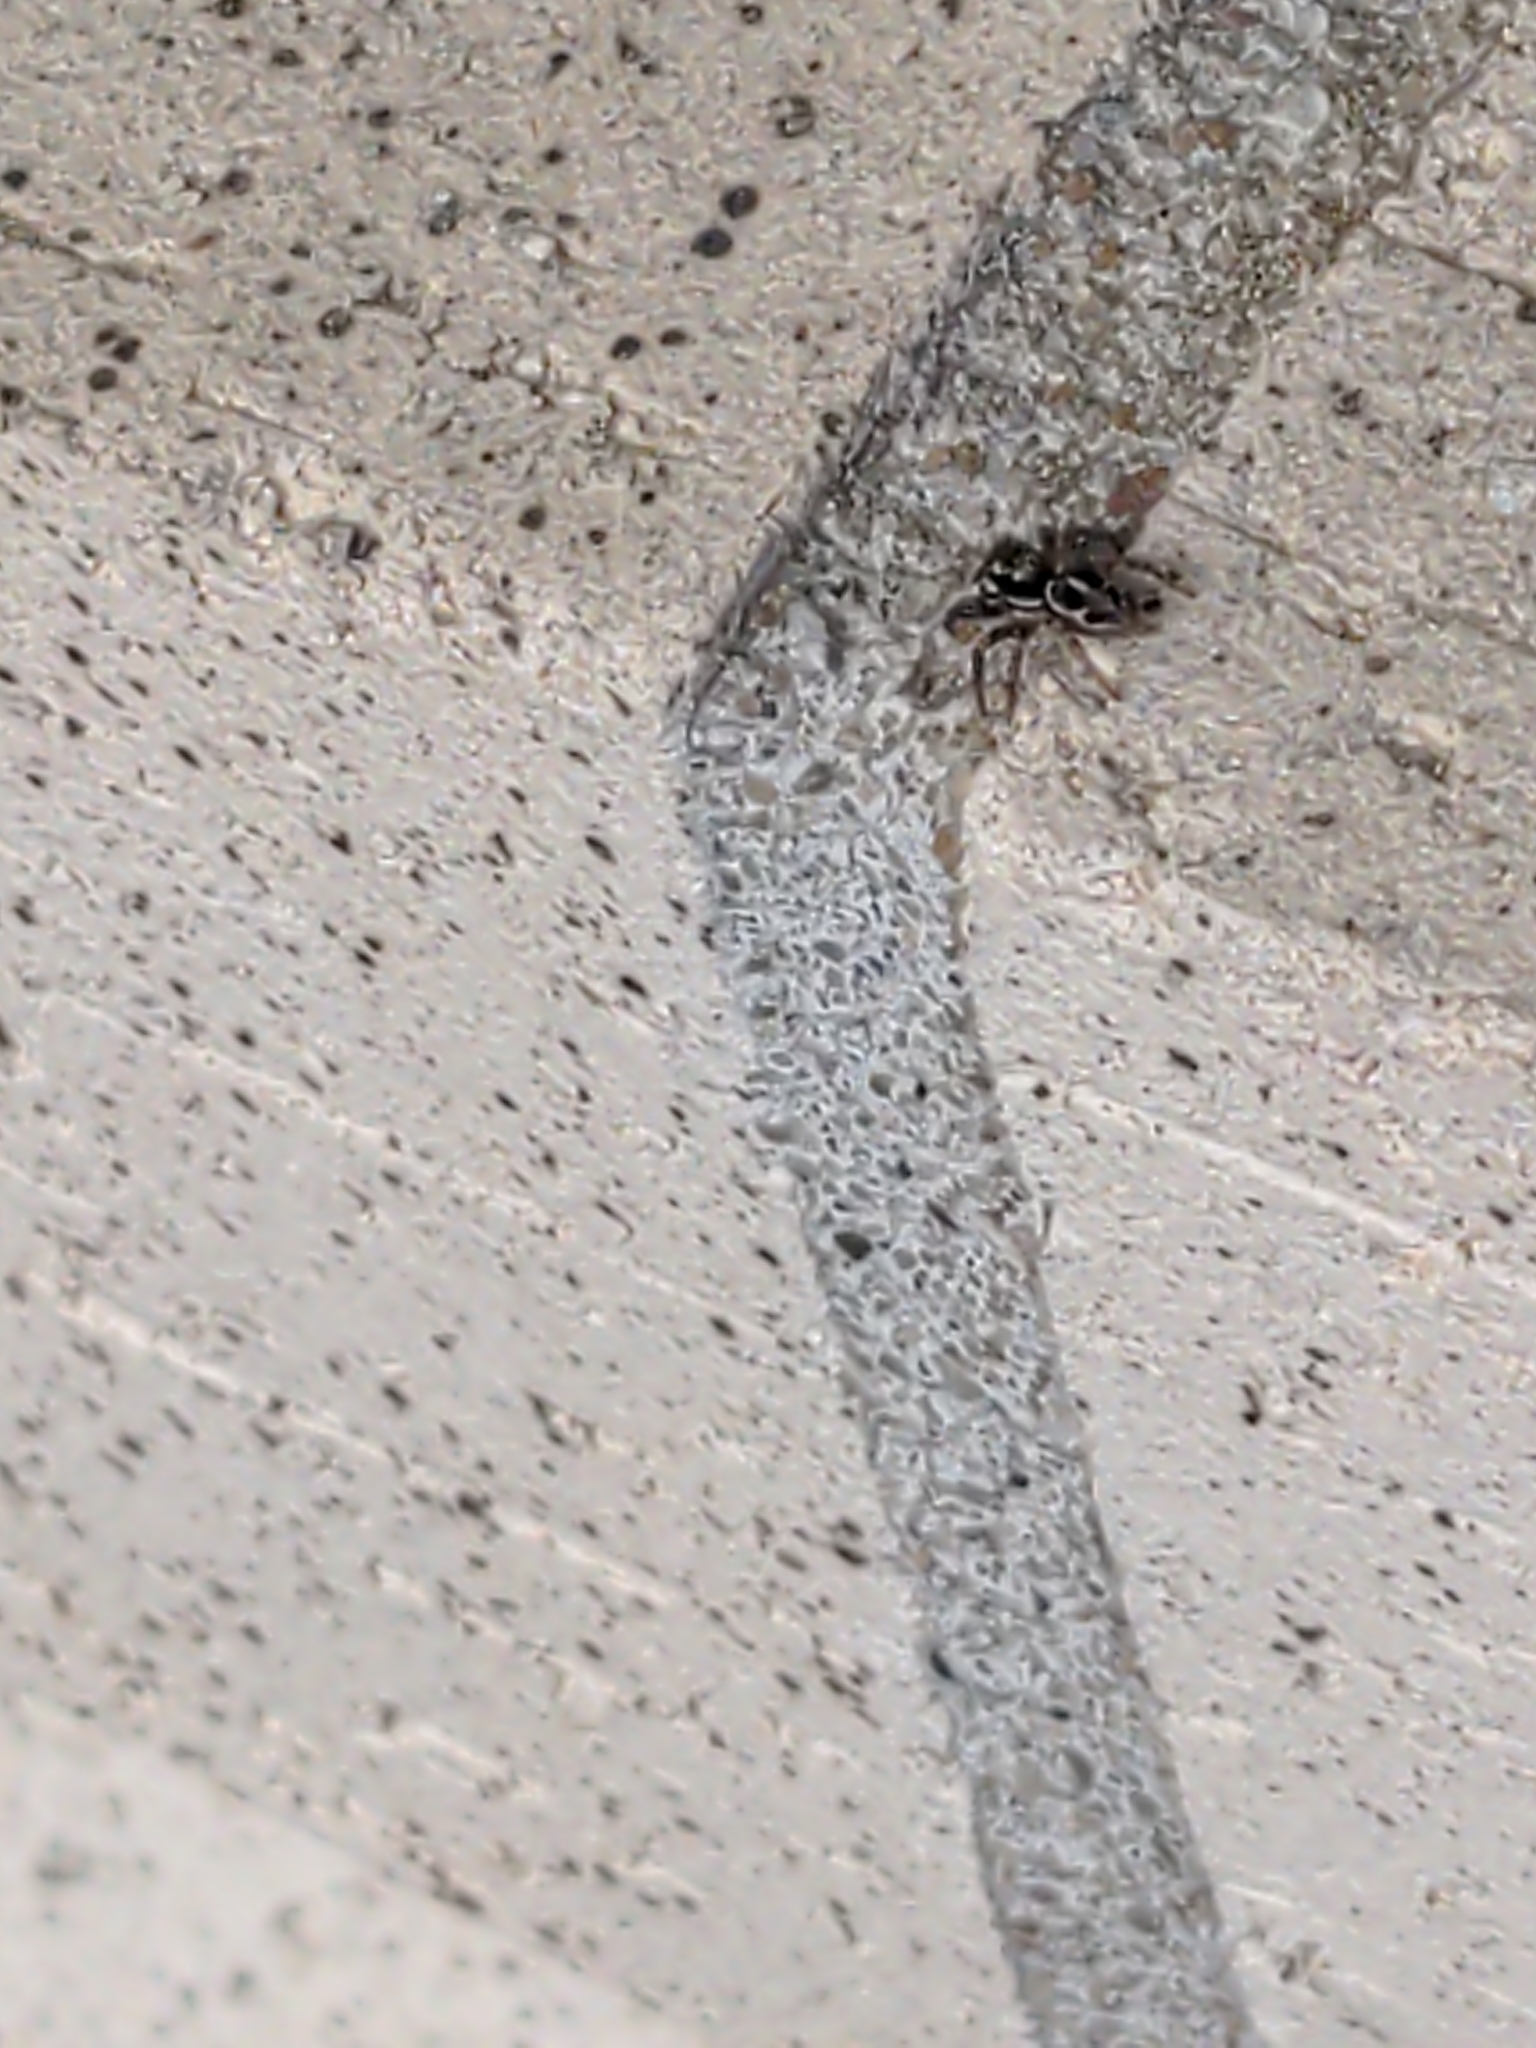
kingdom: Animalia
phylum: Arthropoda
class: Arachnida
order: Araneae
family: Salticidae
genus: Anasaitis
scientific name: Anasaitis canosa
